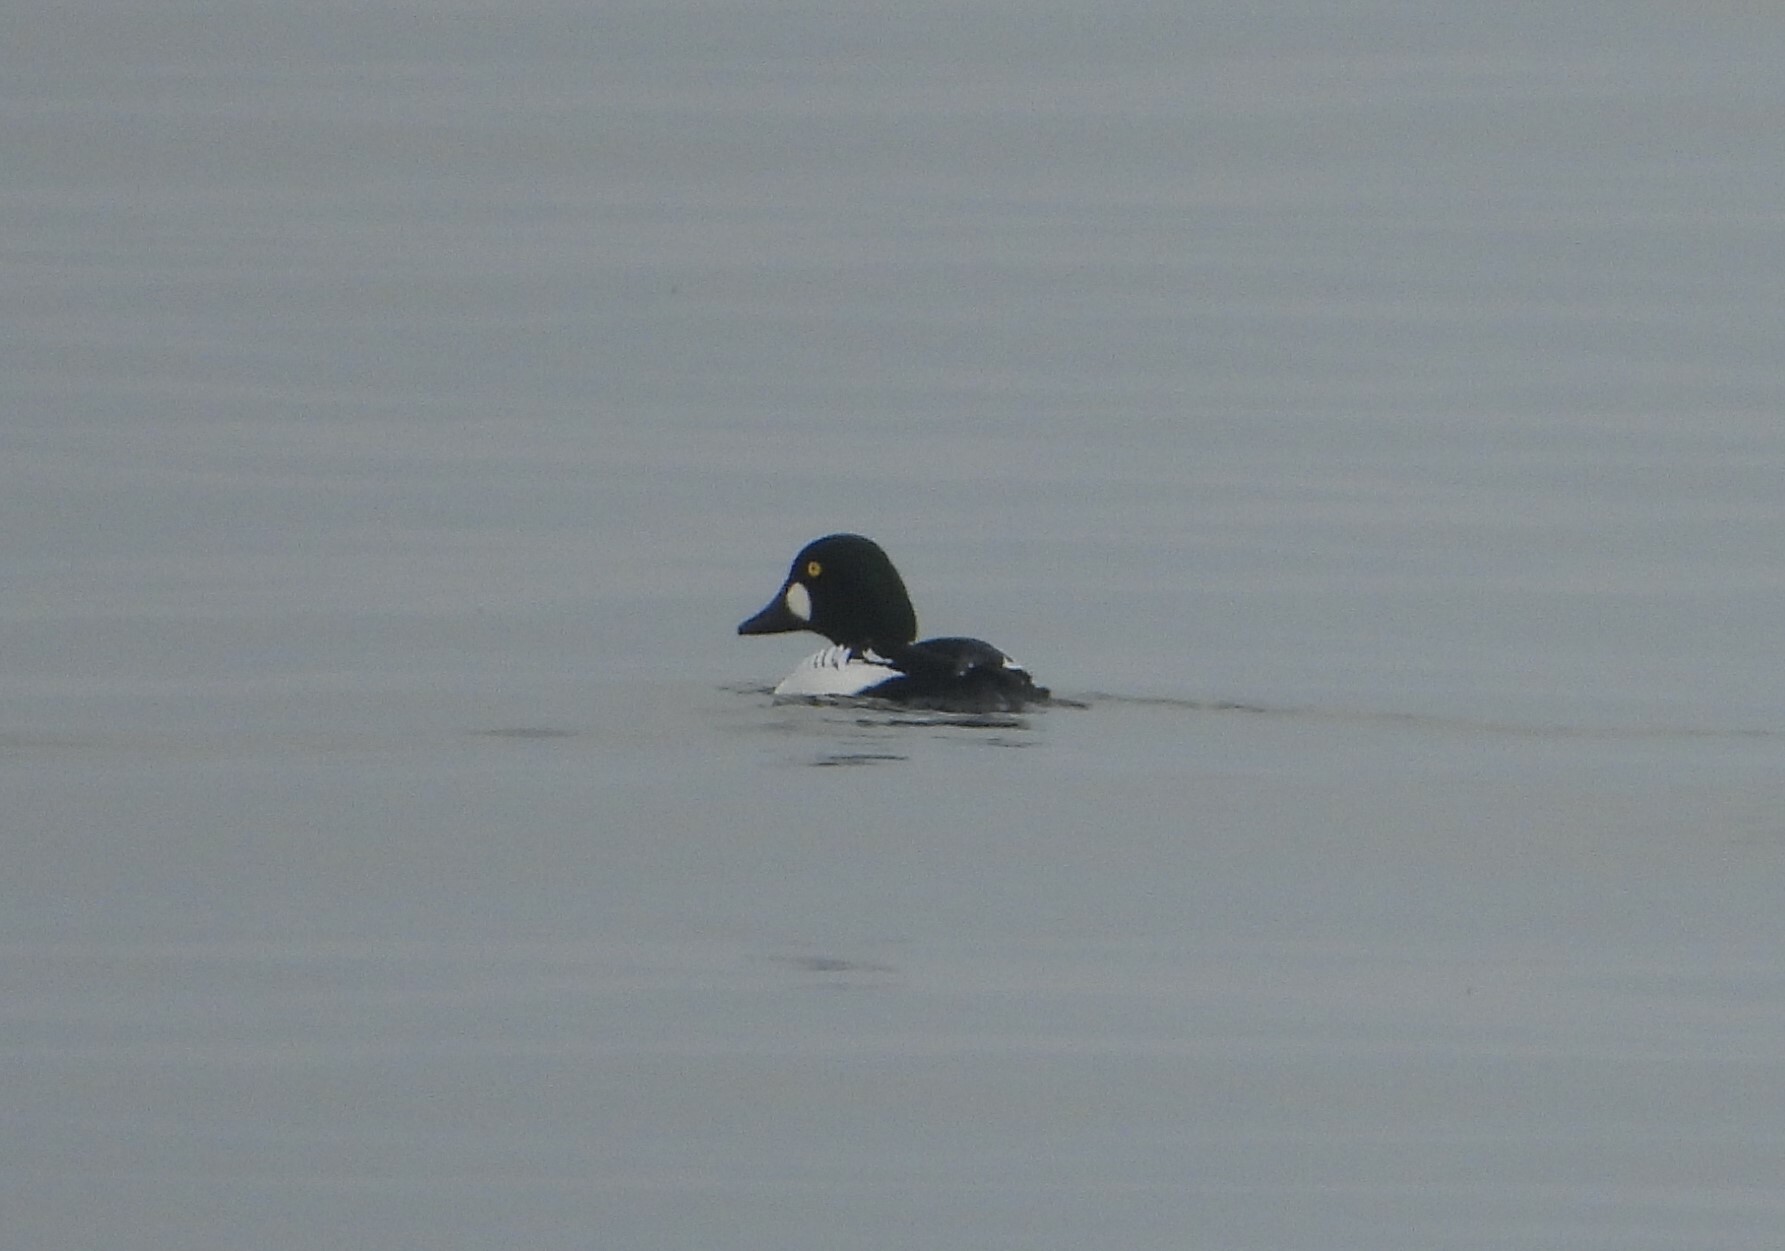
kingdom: Animalia
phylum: Chordata
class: Aves
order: Anseriformes
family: Anatidae
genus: Bucephala
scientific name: Bucephala clangula
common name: Common goldeneye
